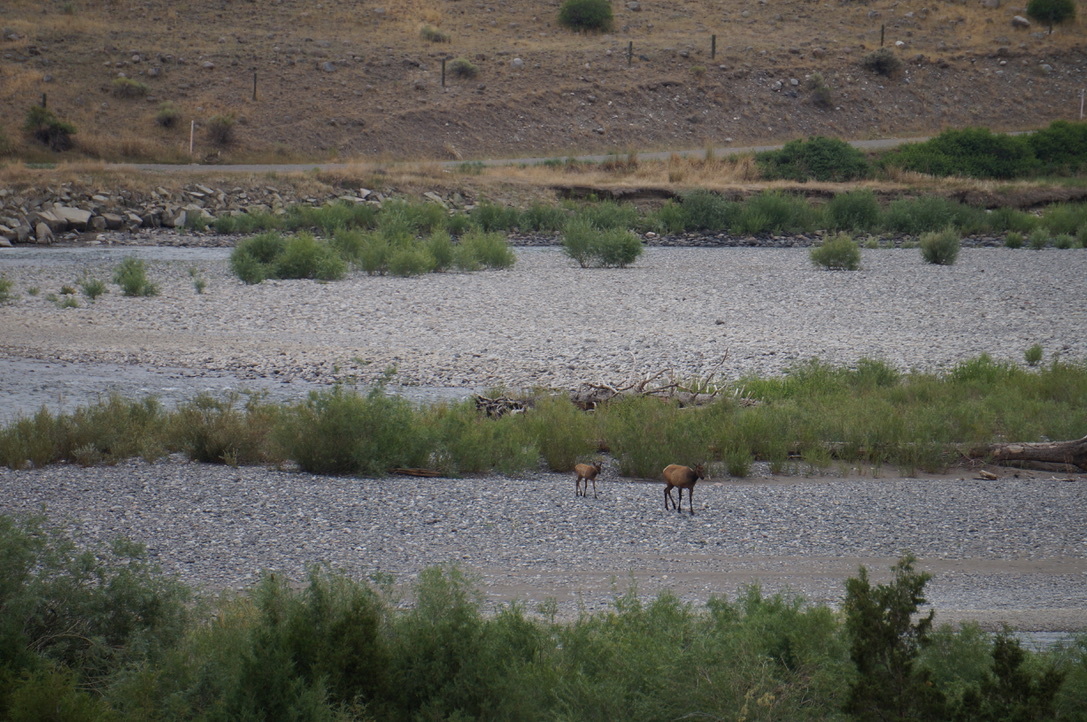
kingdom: Animalia
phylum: Chordata
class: Mammalia
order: Artiodactyla
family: Cervidae
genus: Cervus
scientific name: Cervus elaphus
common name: Red deer
